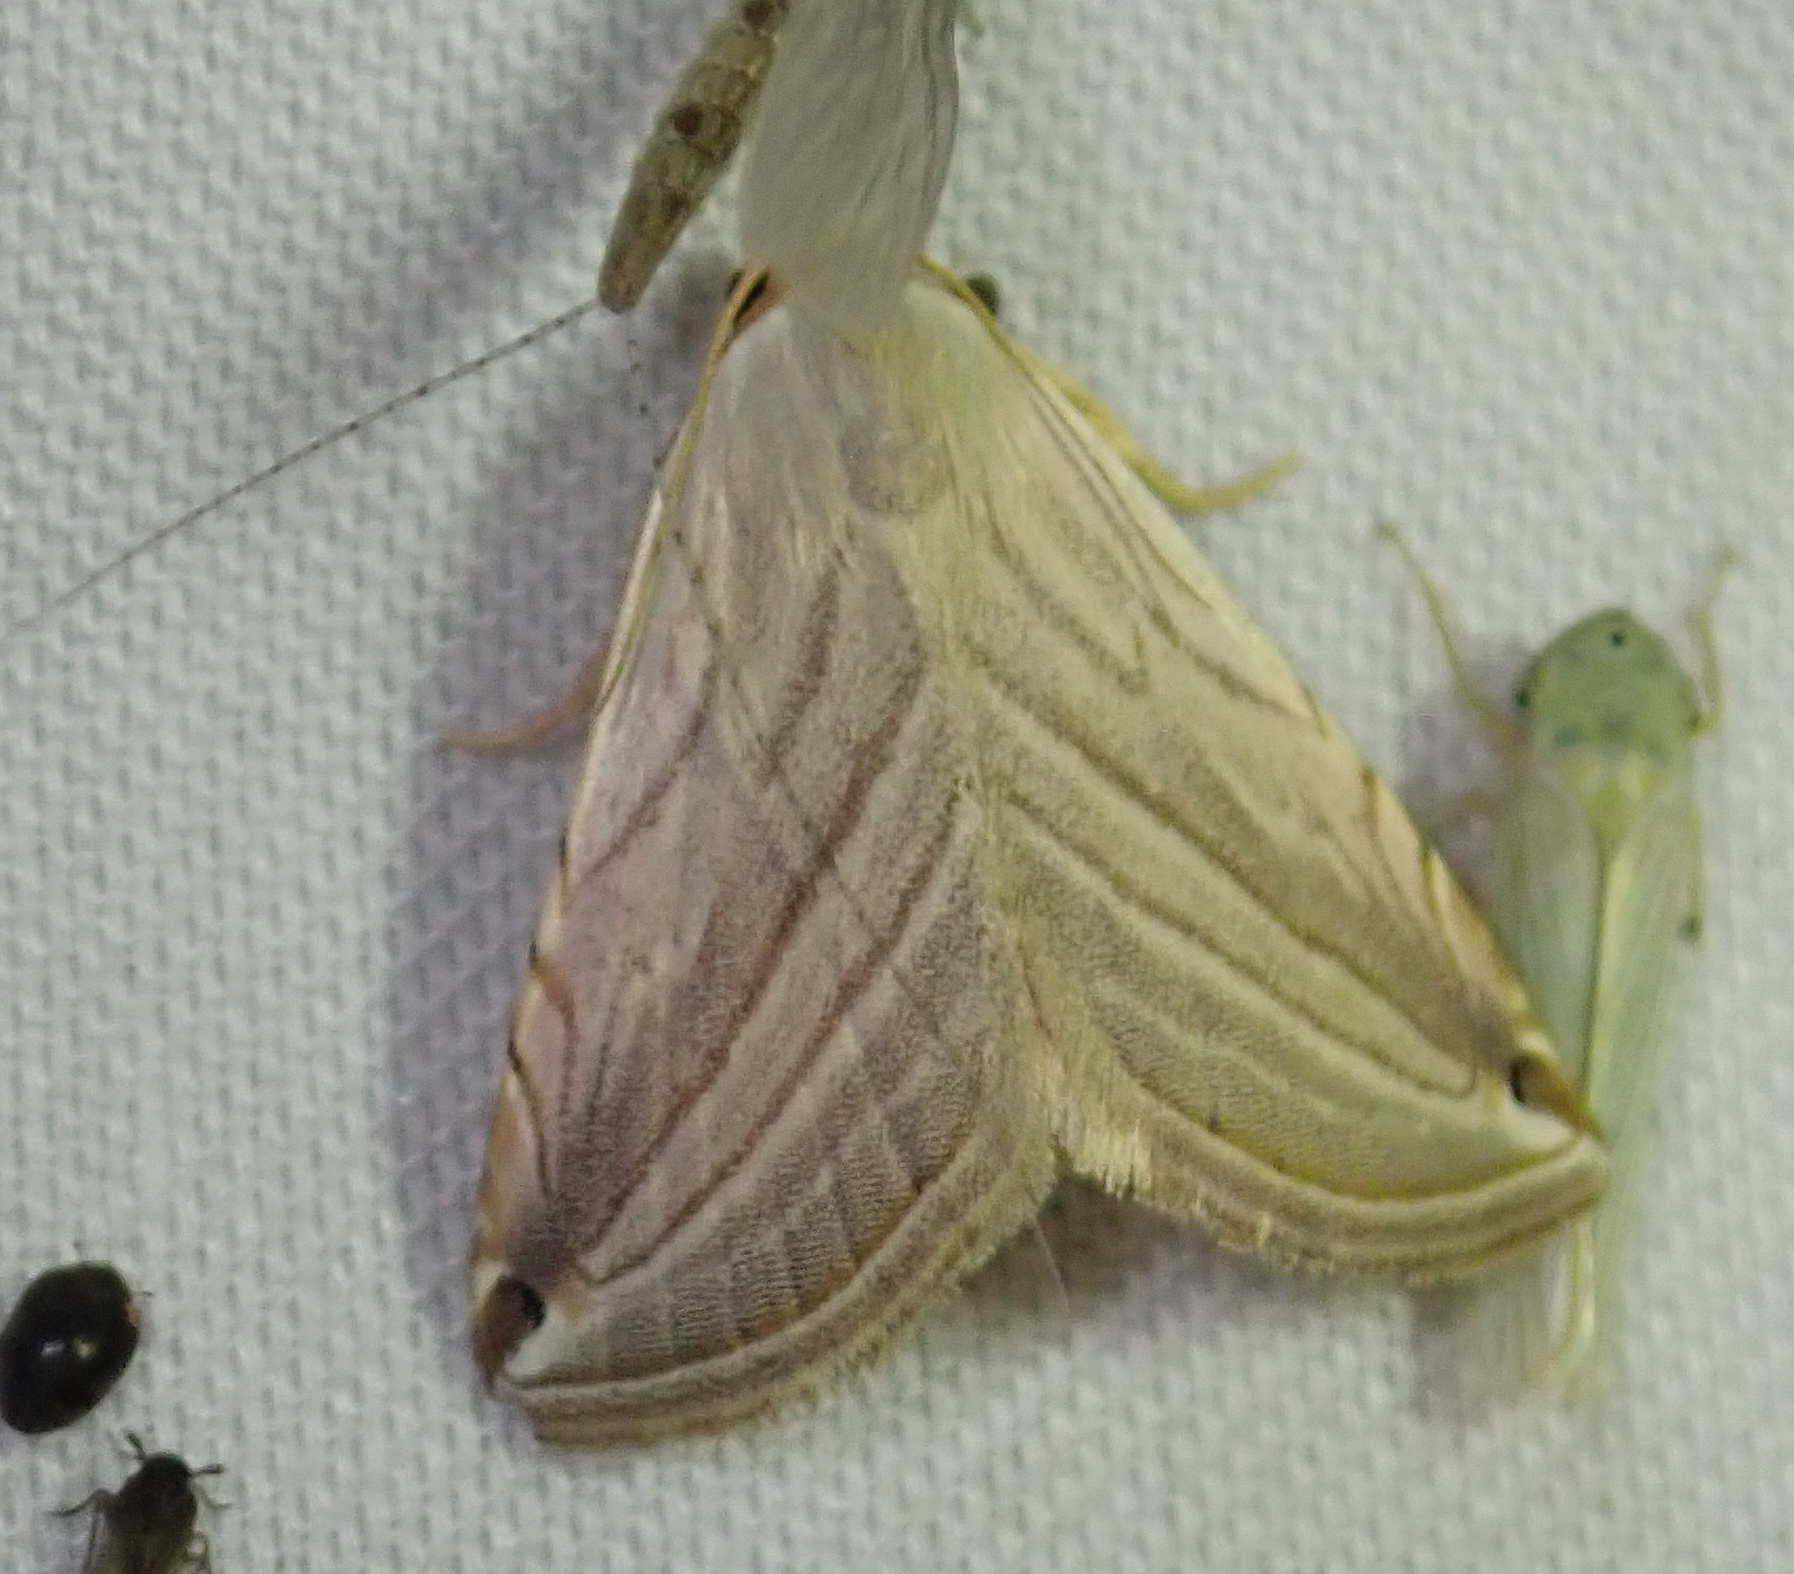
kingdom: Animalia
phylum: Arthropoda
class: Insecta
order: Lepidoptera
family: Noctuidae
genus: Honeyania
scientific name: Honeyania ragusana
